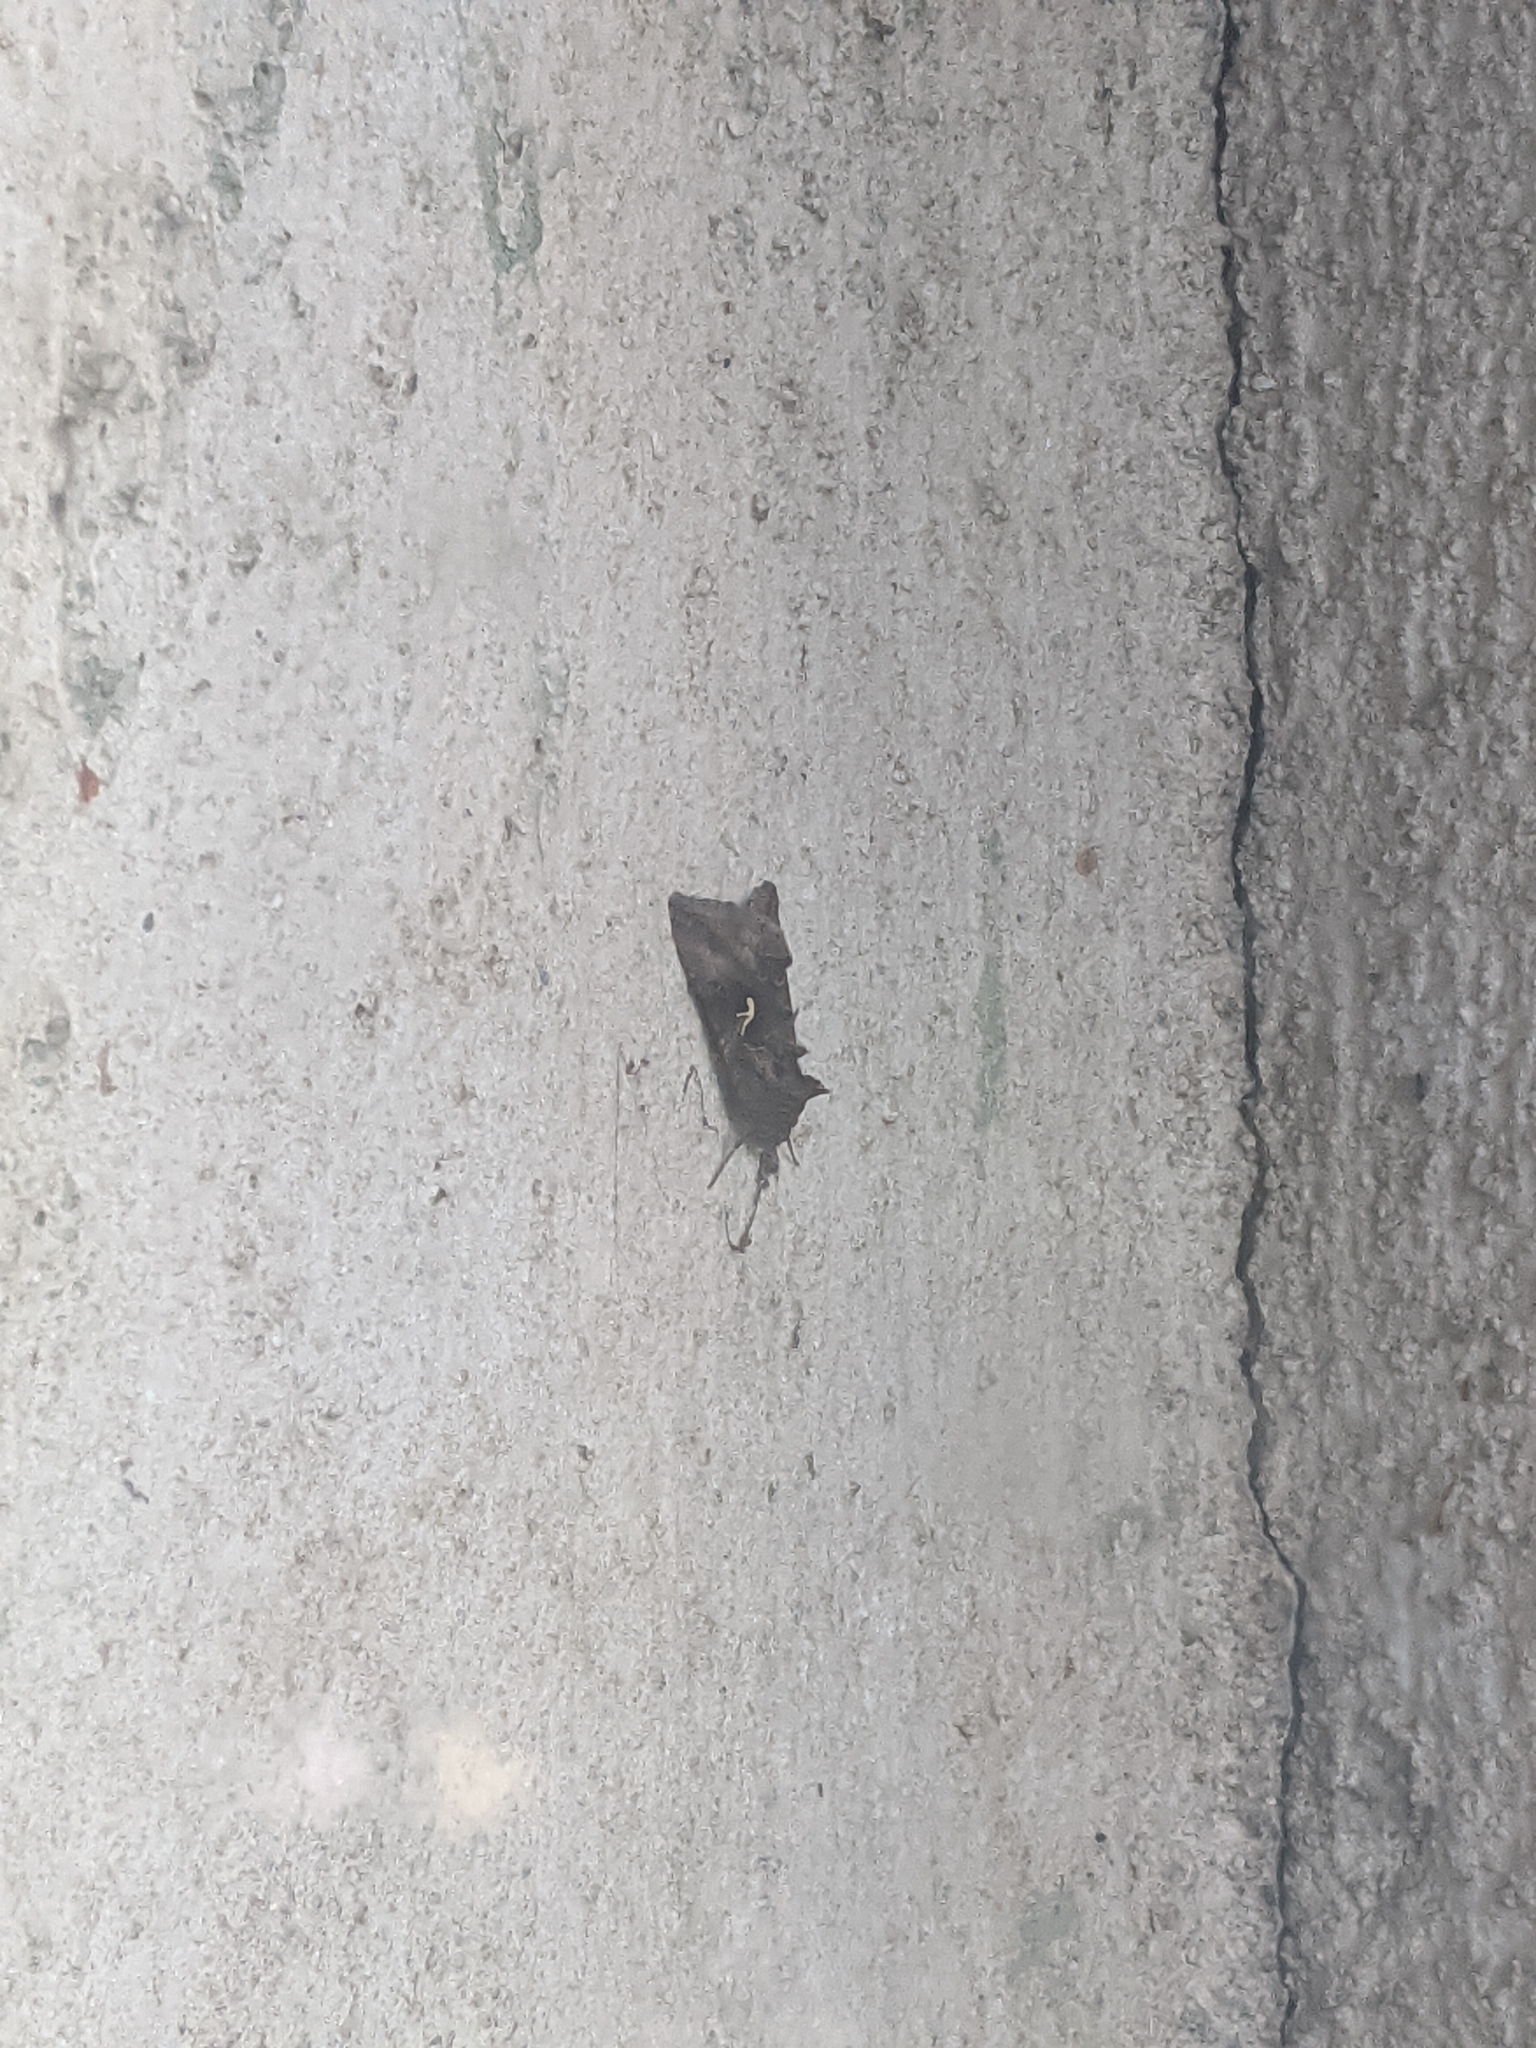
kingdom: Animalia
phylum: Arthropoda
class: Insecta
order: Lepidoptera
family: Noctuidae
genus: Autographa
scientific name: Autographa gamma
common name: Silver y
